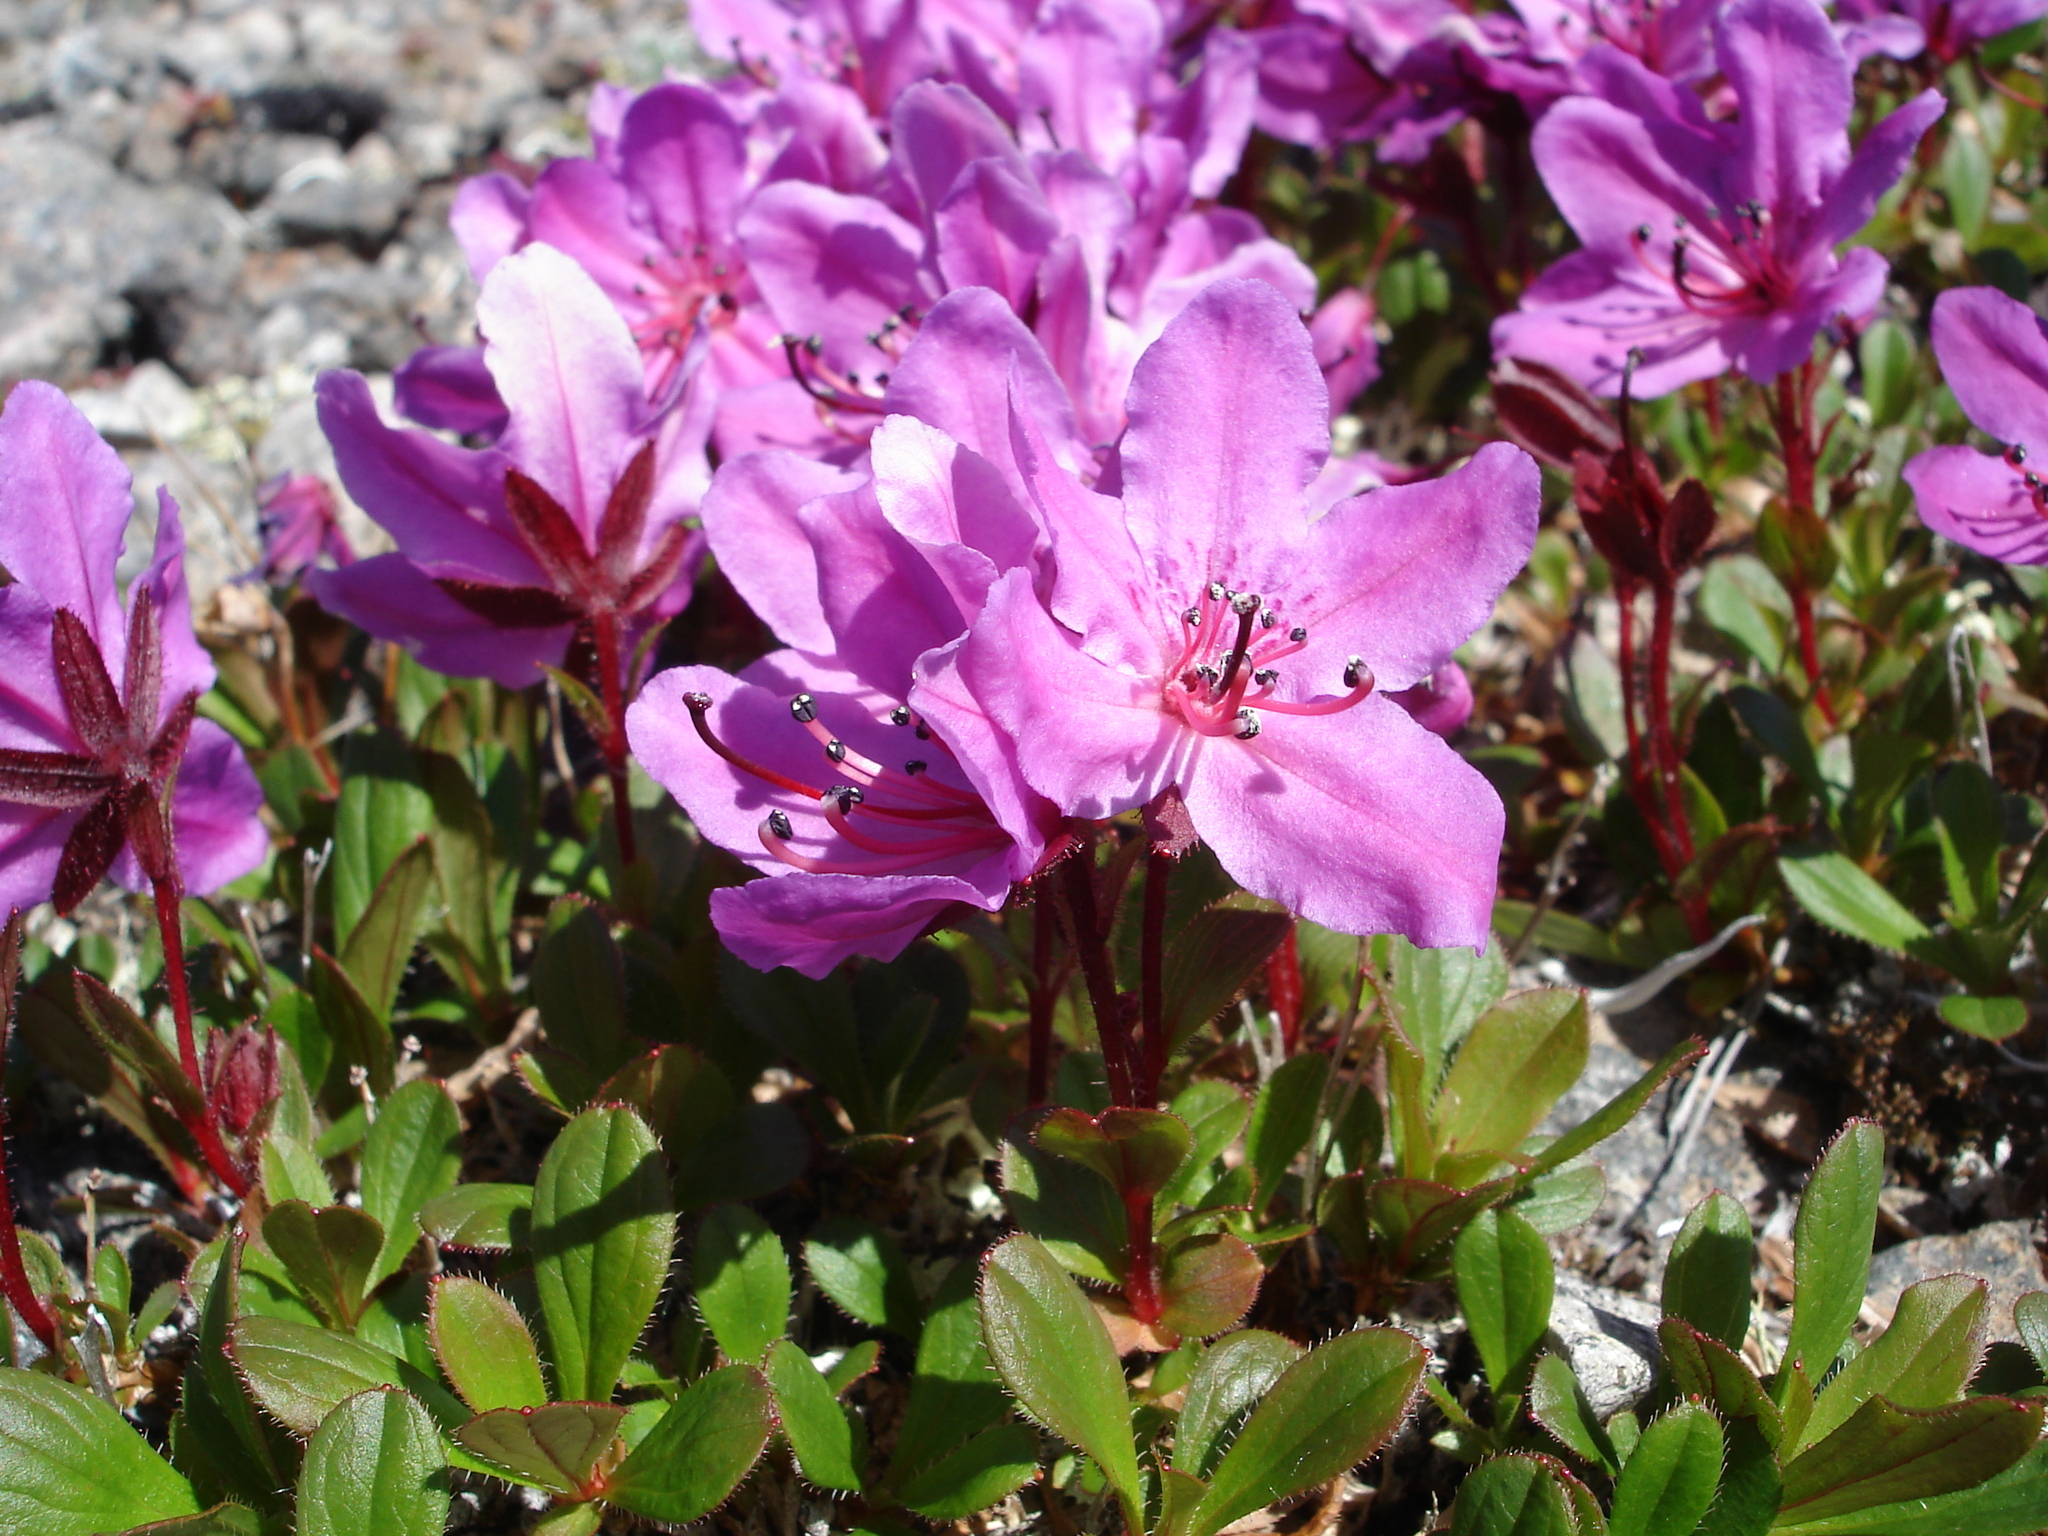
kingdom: Plantae
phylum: Tracheophyta
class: Magnoliopsida
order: Ericales
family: Ericaceae
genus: Rhododendron
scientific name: Rhododendron camtschaticum
